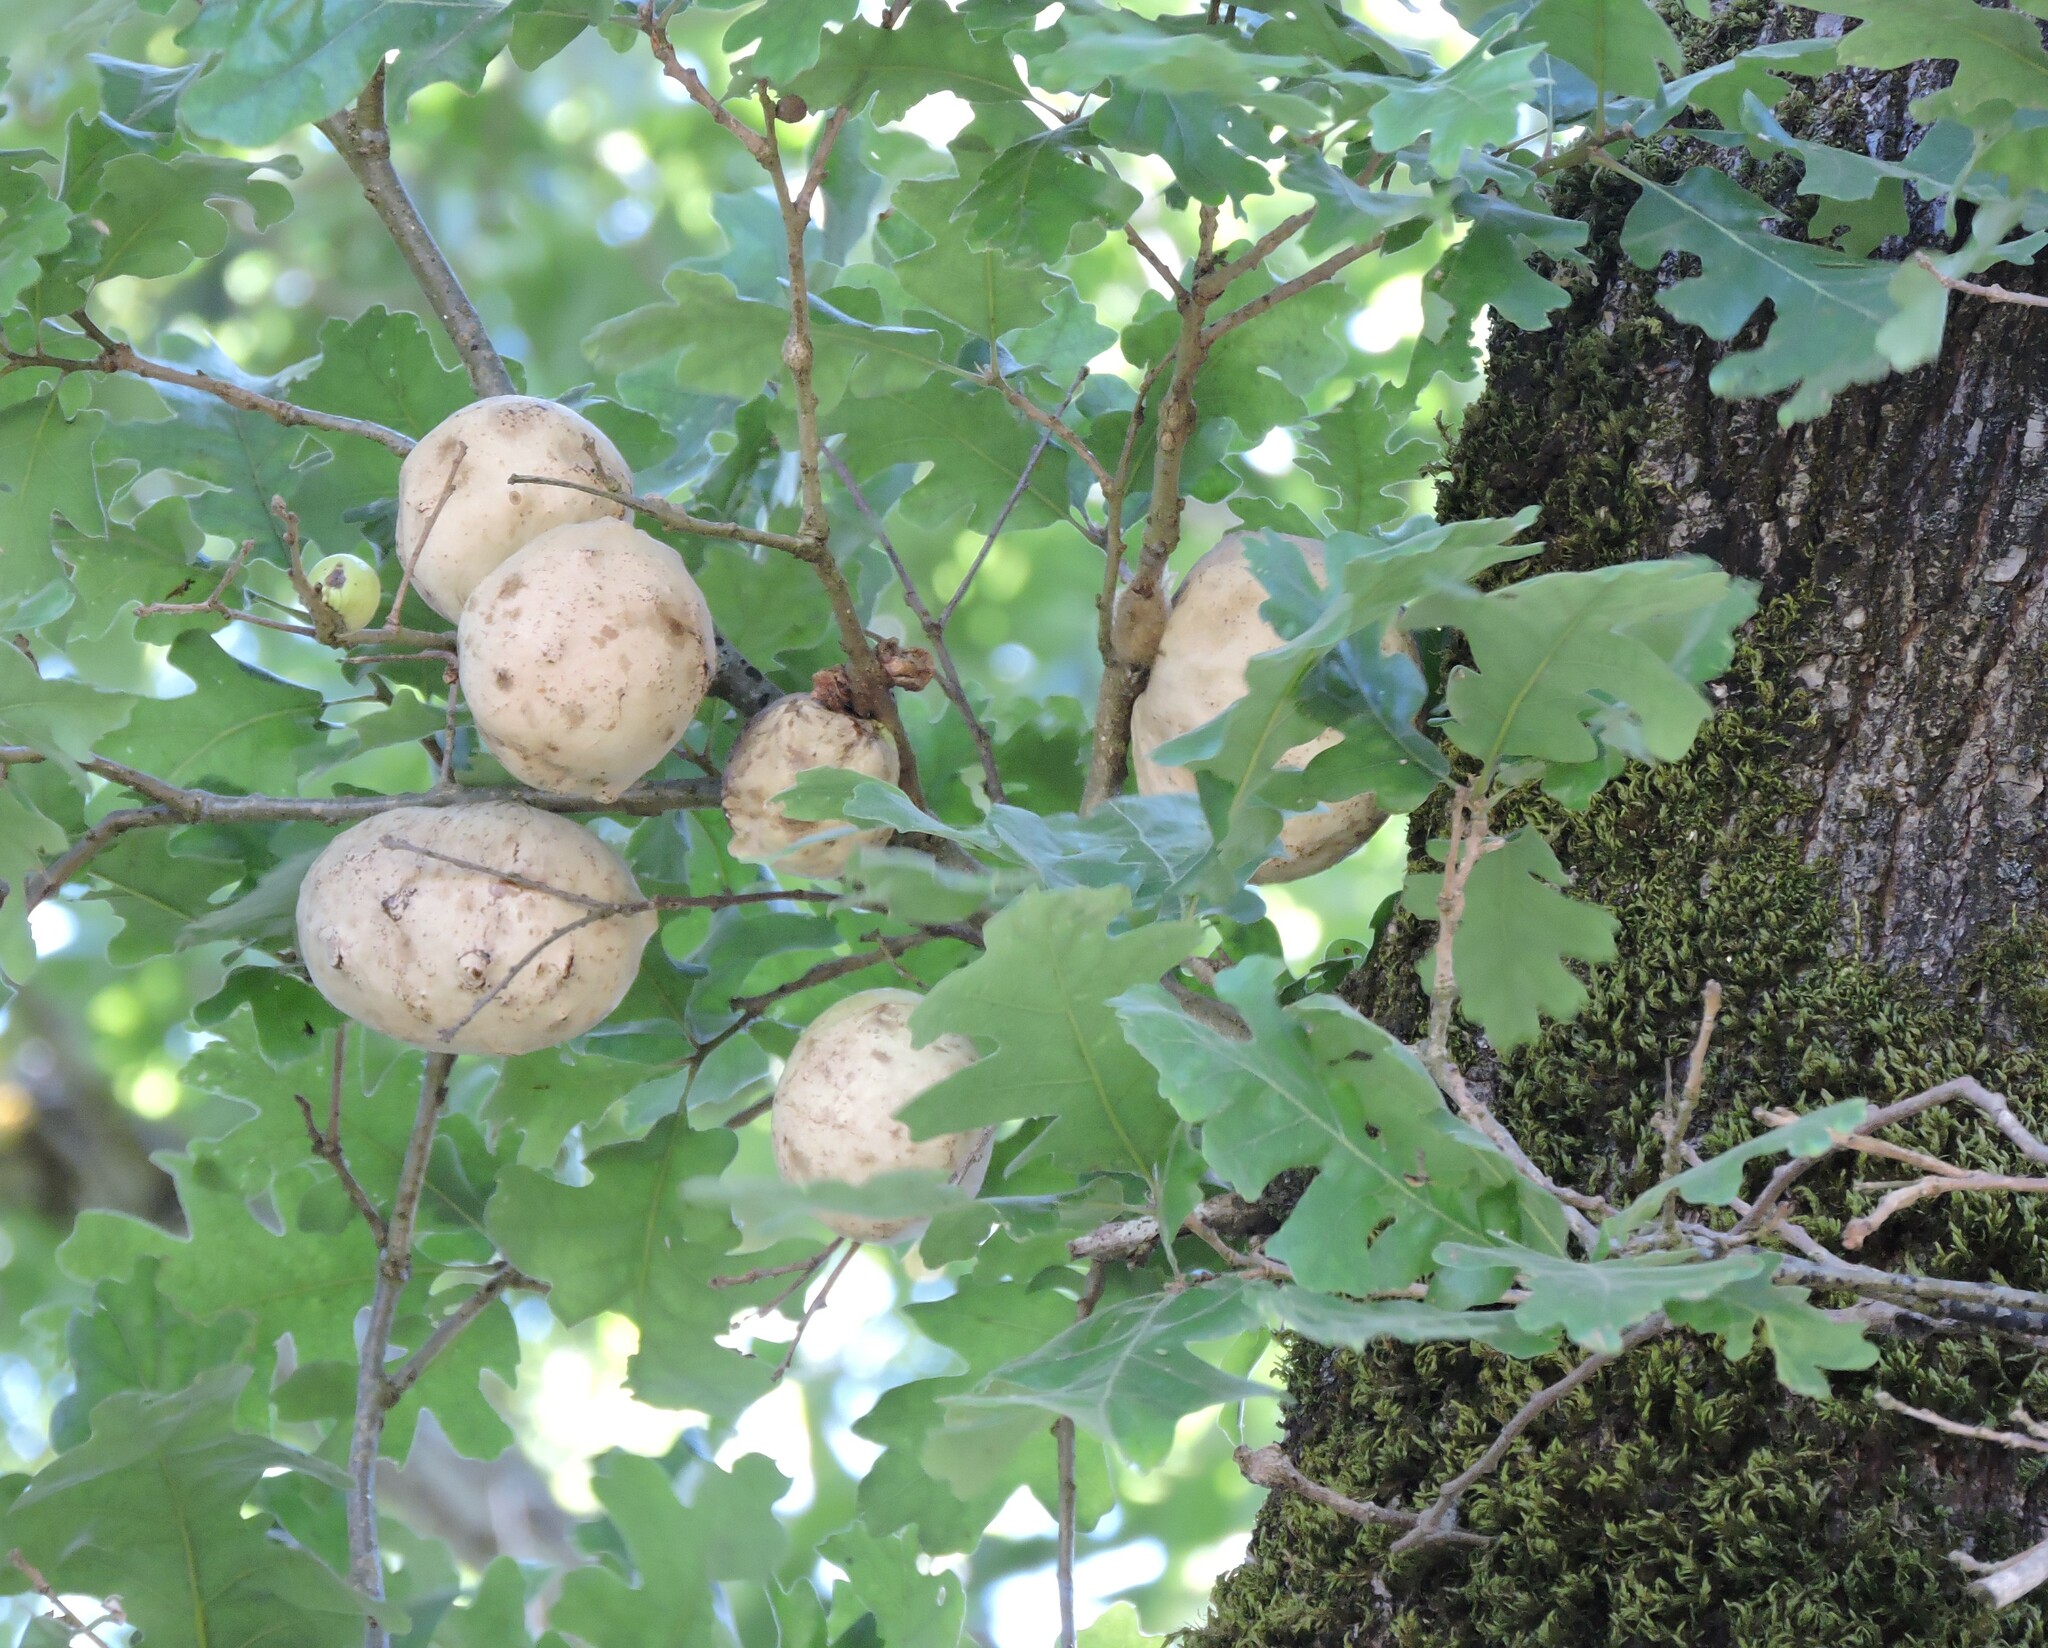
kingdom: Animalia
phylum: Arthropoda
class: Insecta
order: Hymenoptera
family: Cynipidae
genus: Andricus
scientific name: Andricus quercuscalifornicus
